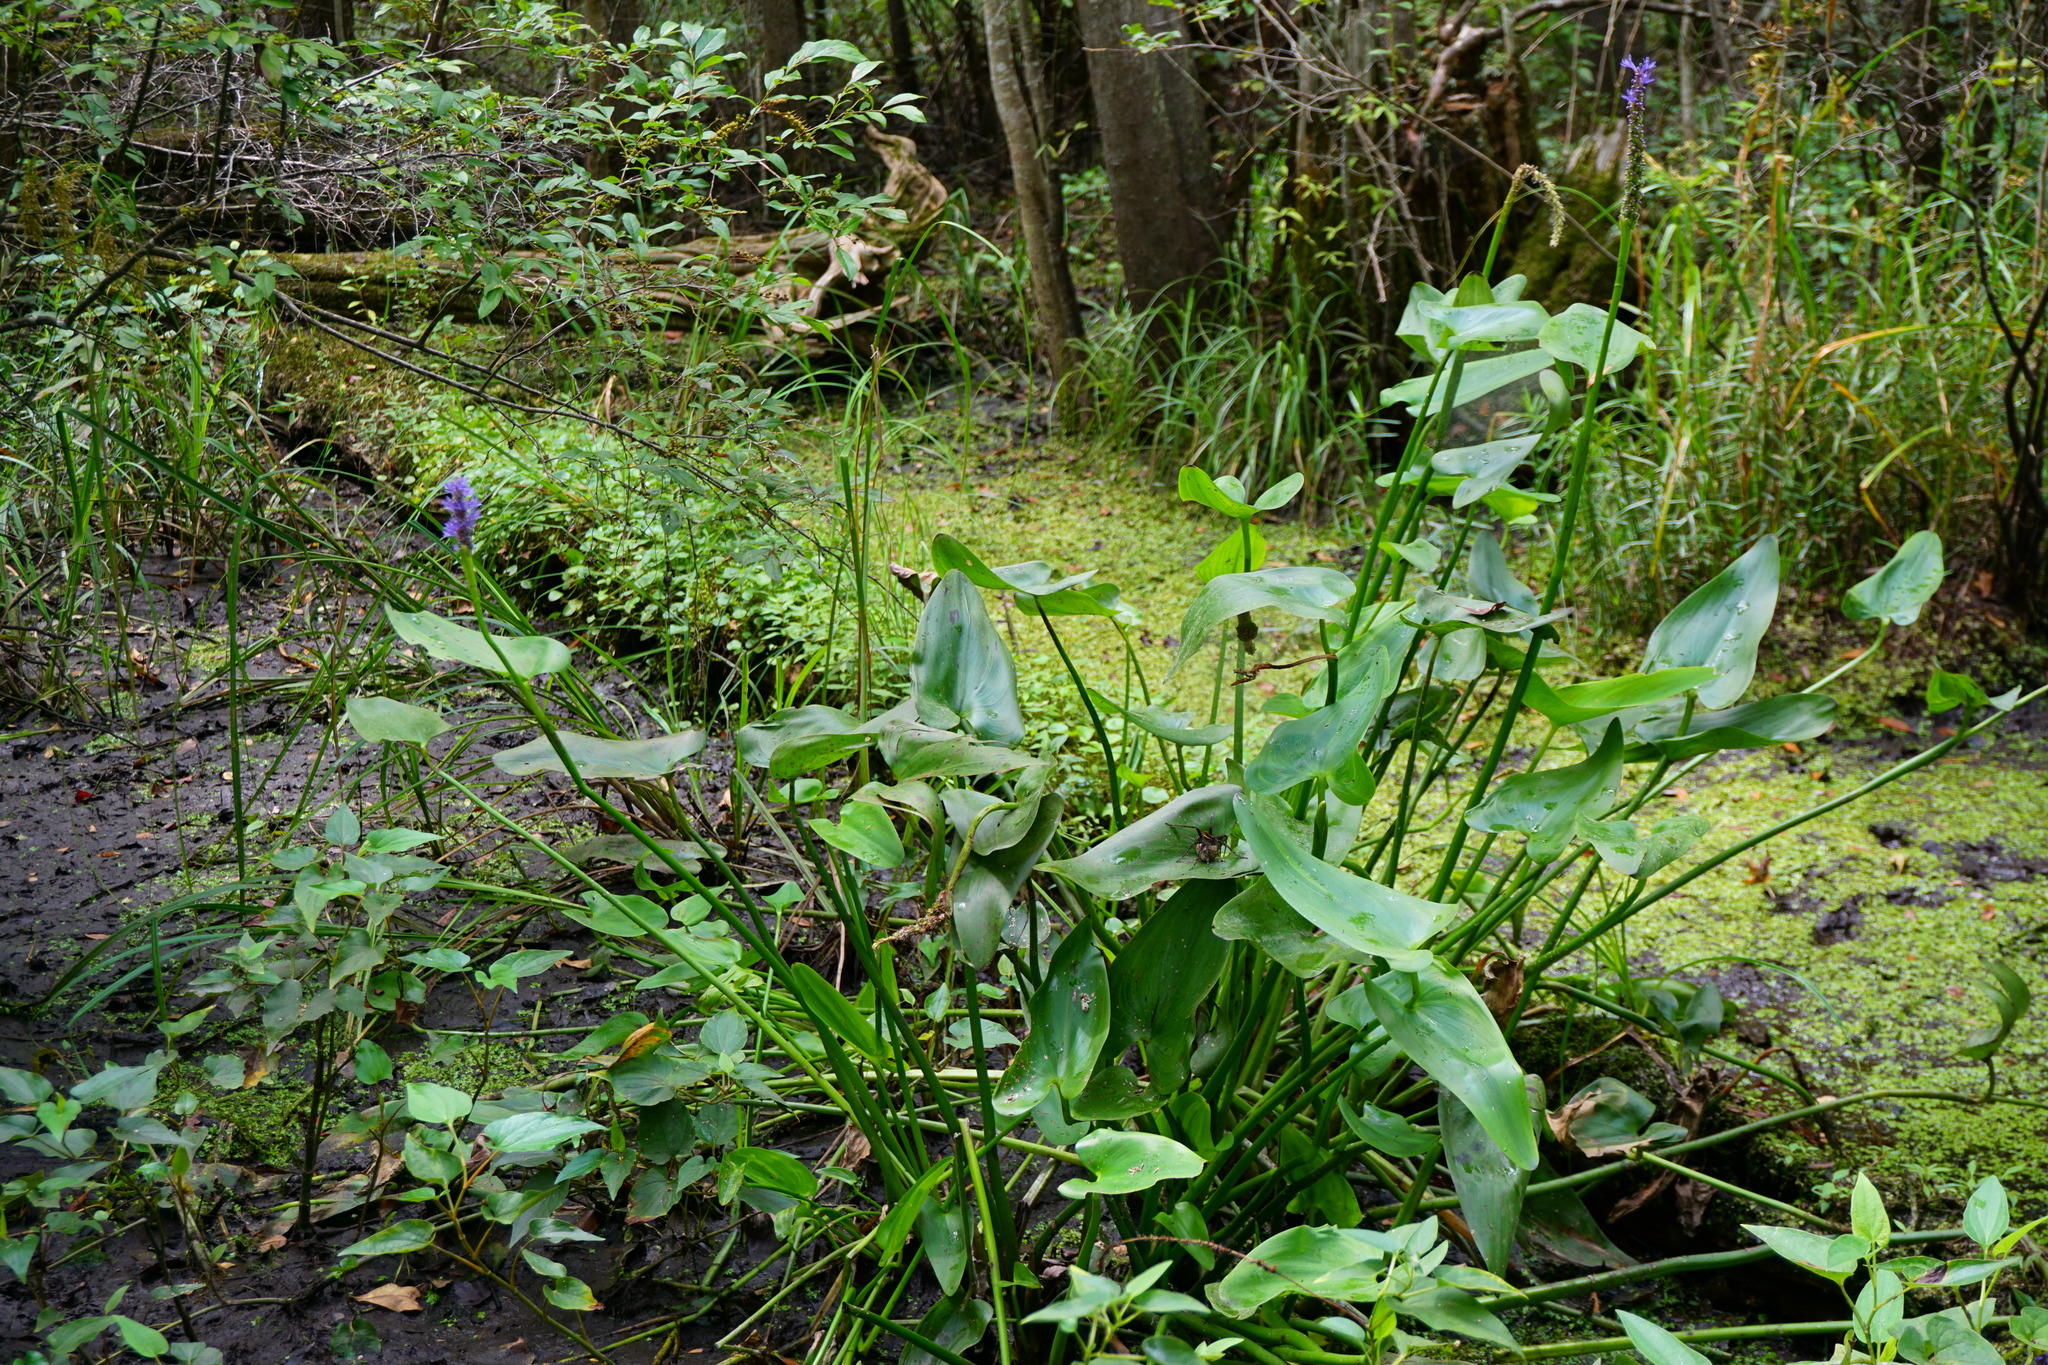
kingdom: Plantae
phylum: Tracheophyta
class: Liliopsida
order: Commelinales
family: Pontederiaceae
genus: Pontederia
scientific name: Pontederia cordata
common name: Pickerelweed
